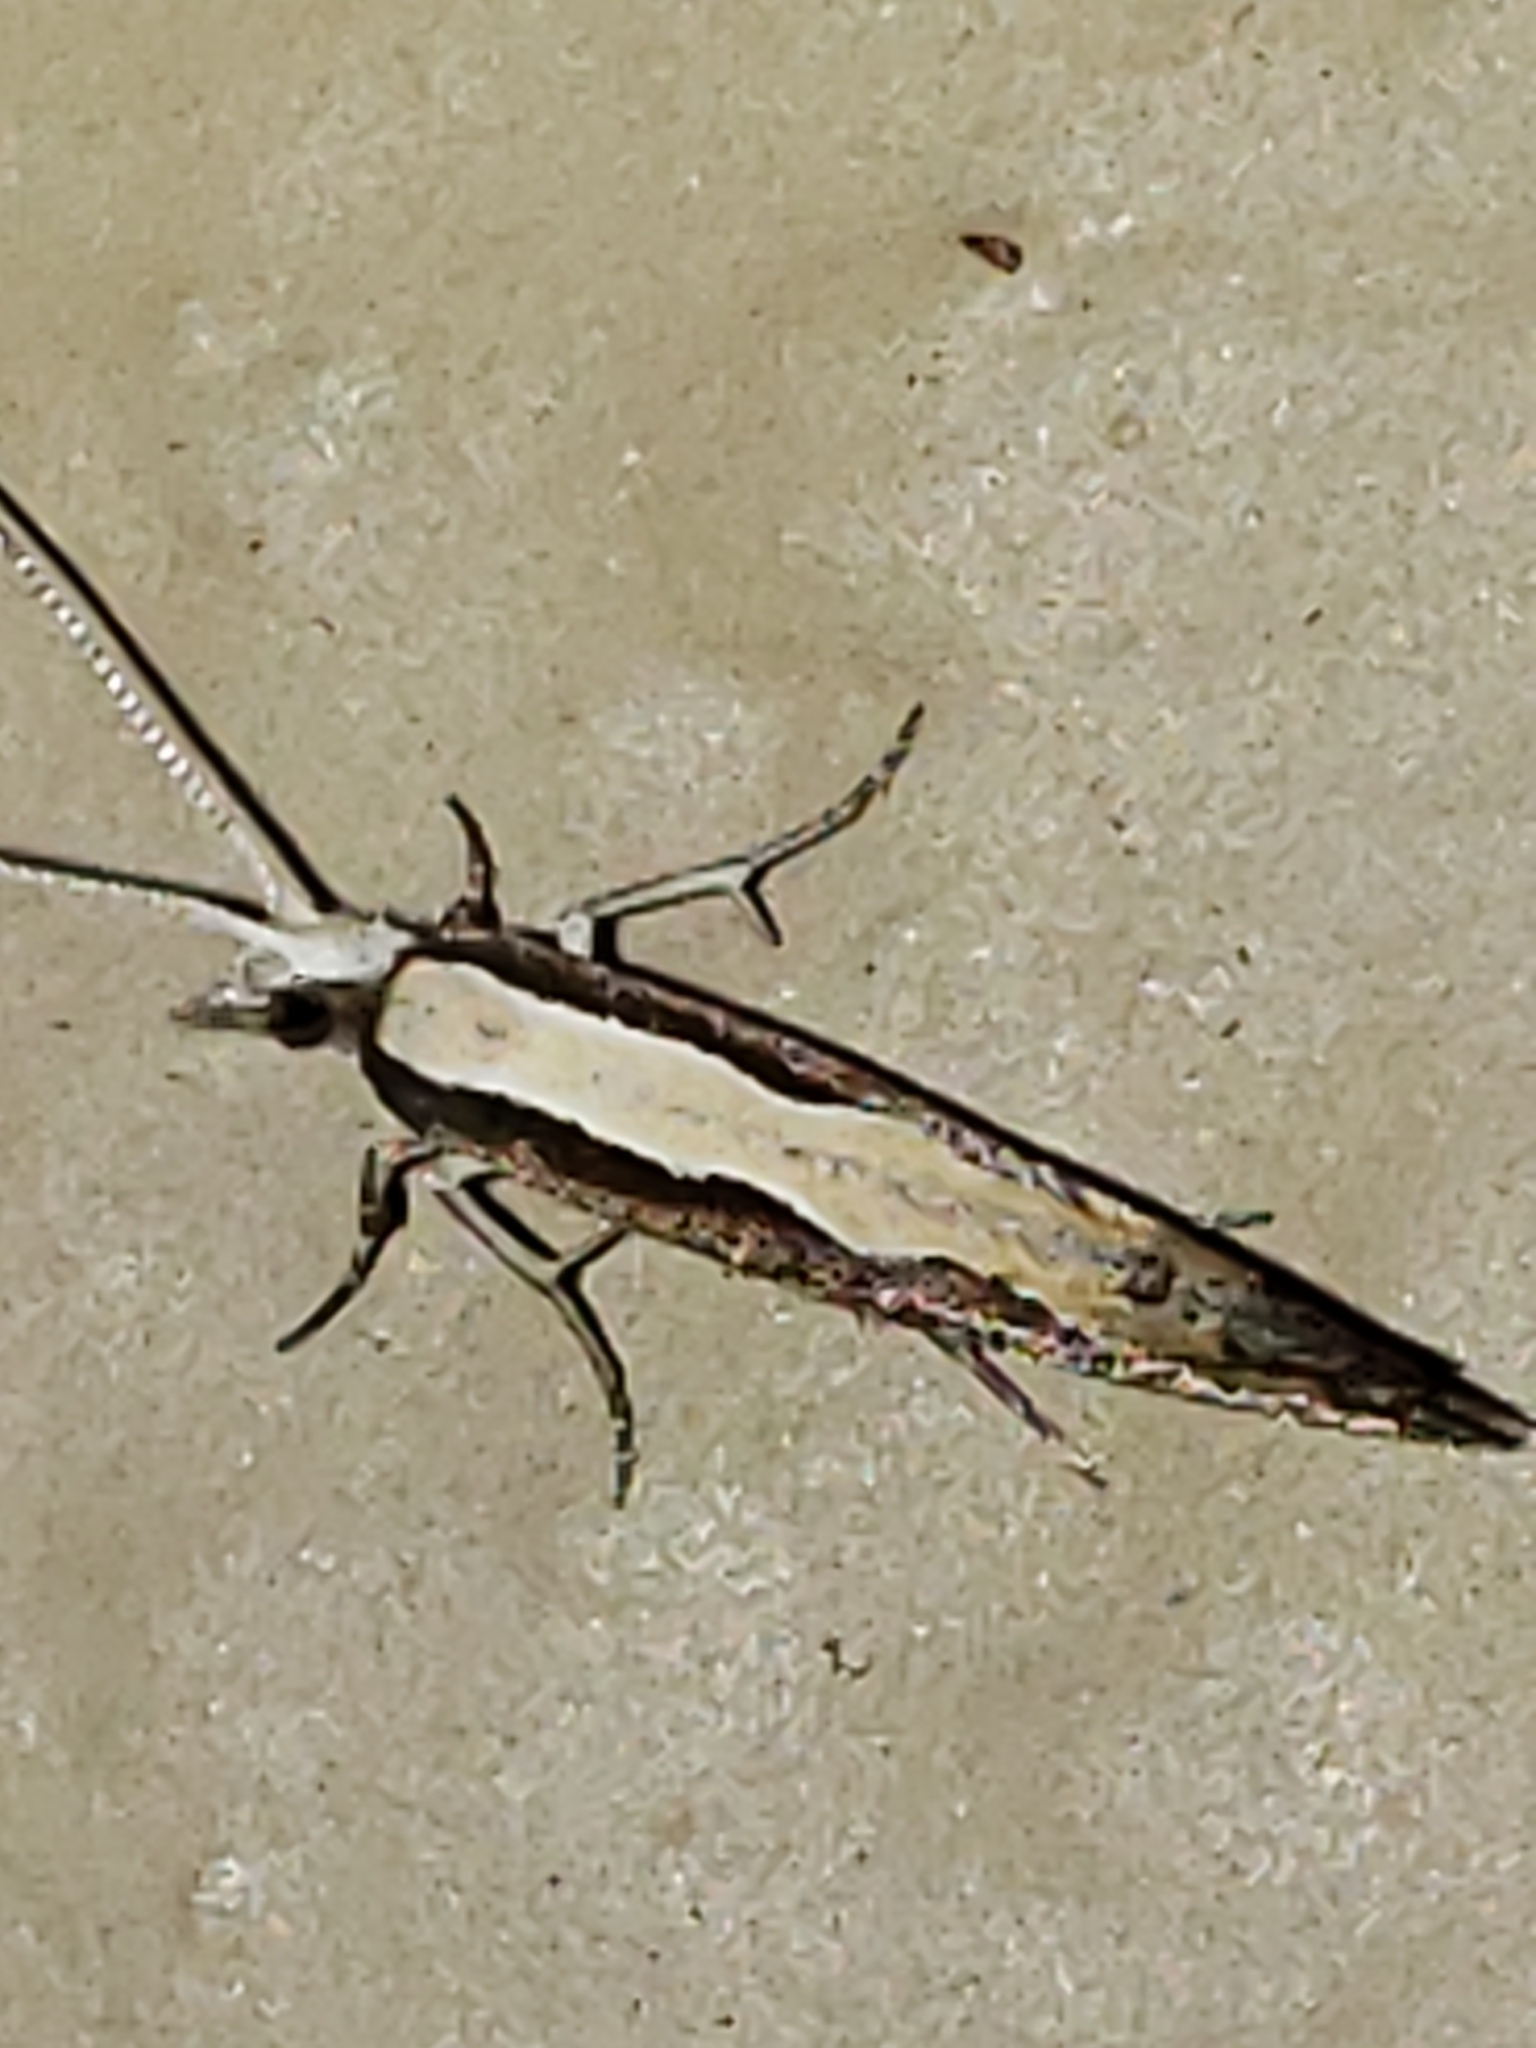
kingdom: Animalia
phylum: Arthropoda
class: Insecta
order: Lepidoptera
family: Plutellidae
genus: Plutella
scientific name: Plutella xylostella
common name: Diamond-back moth
